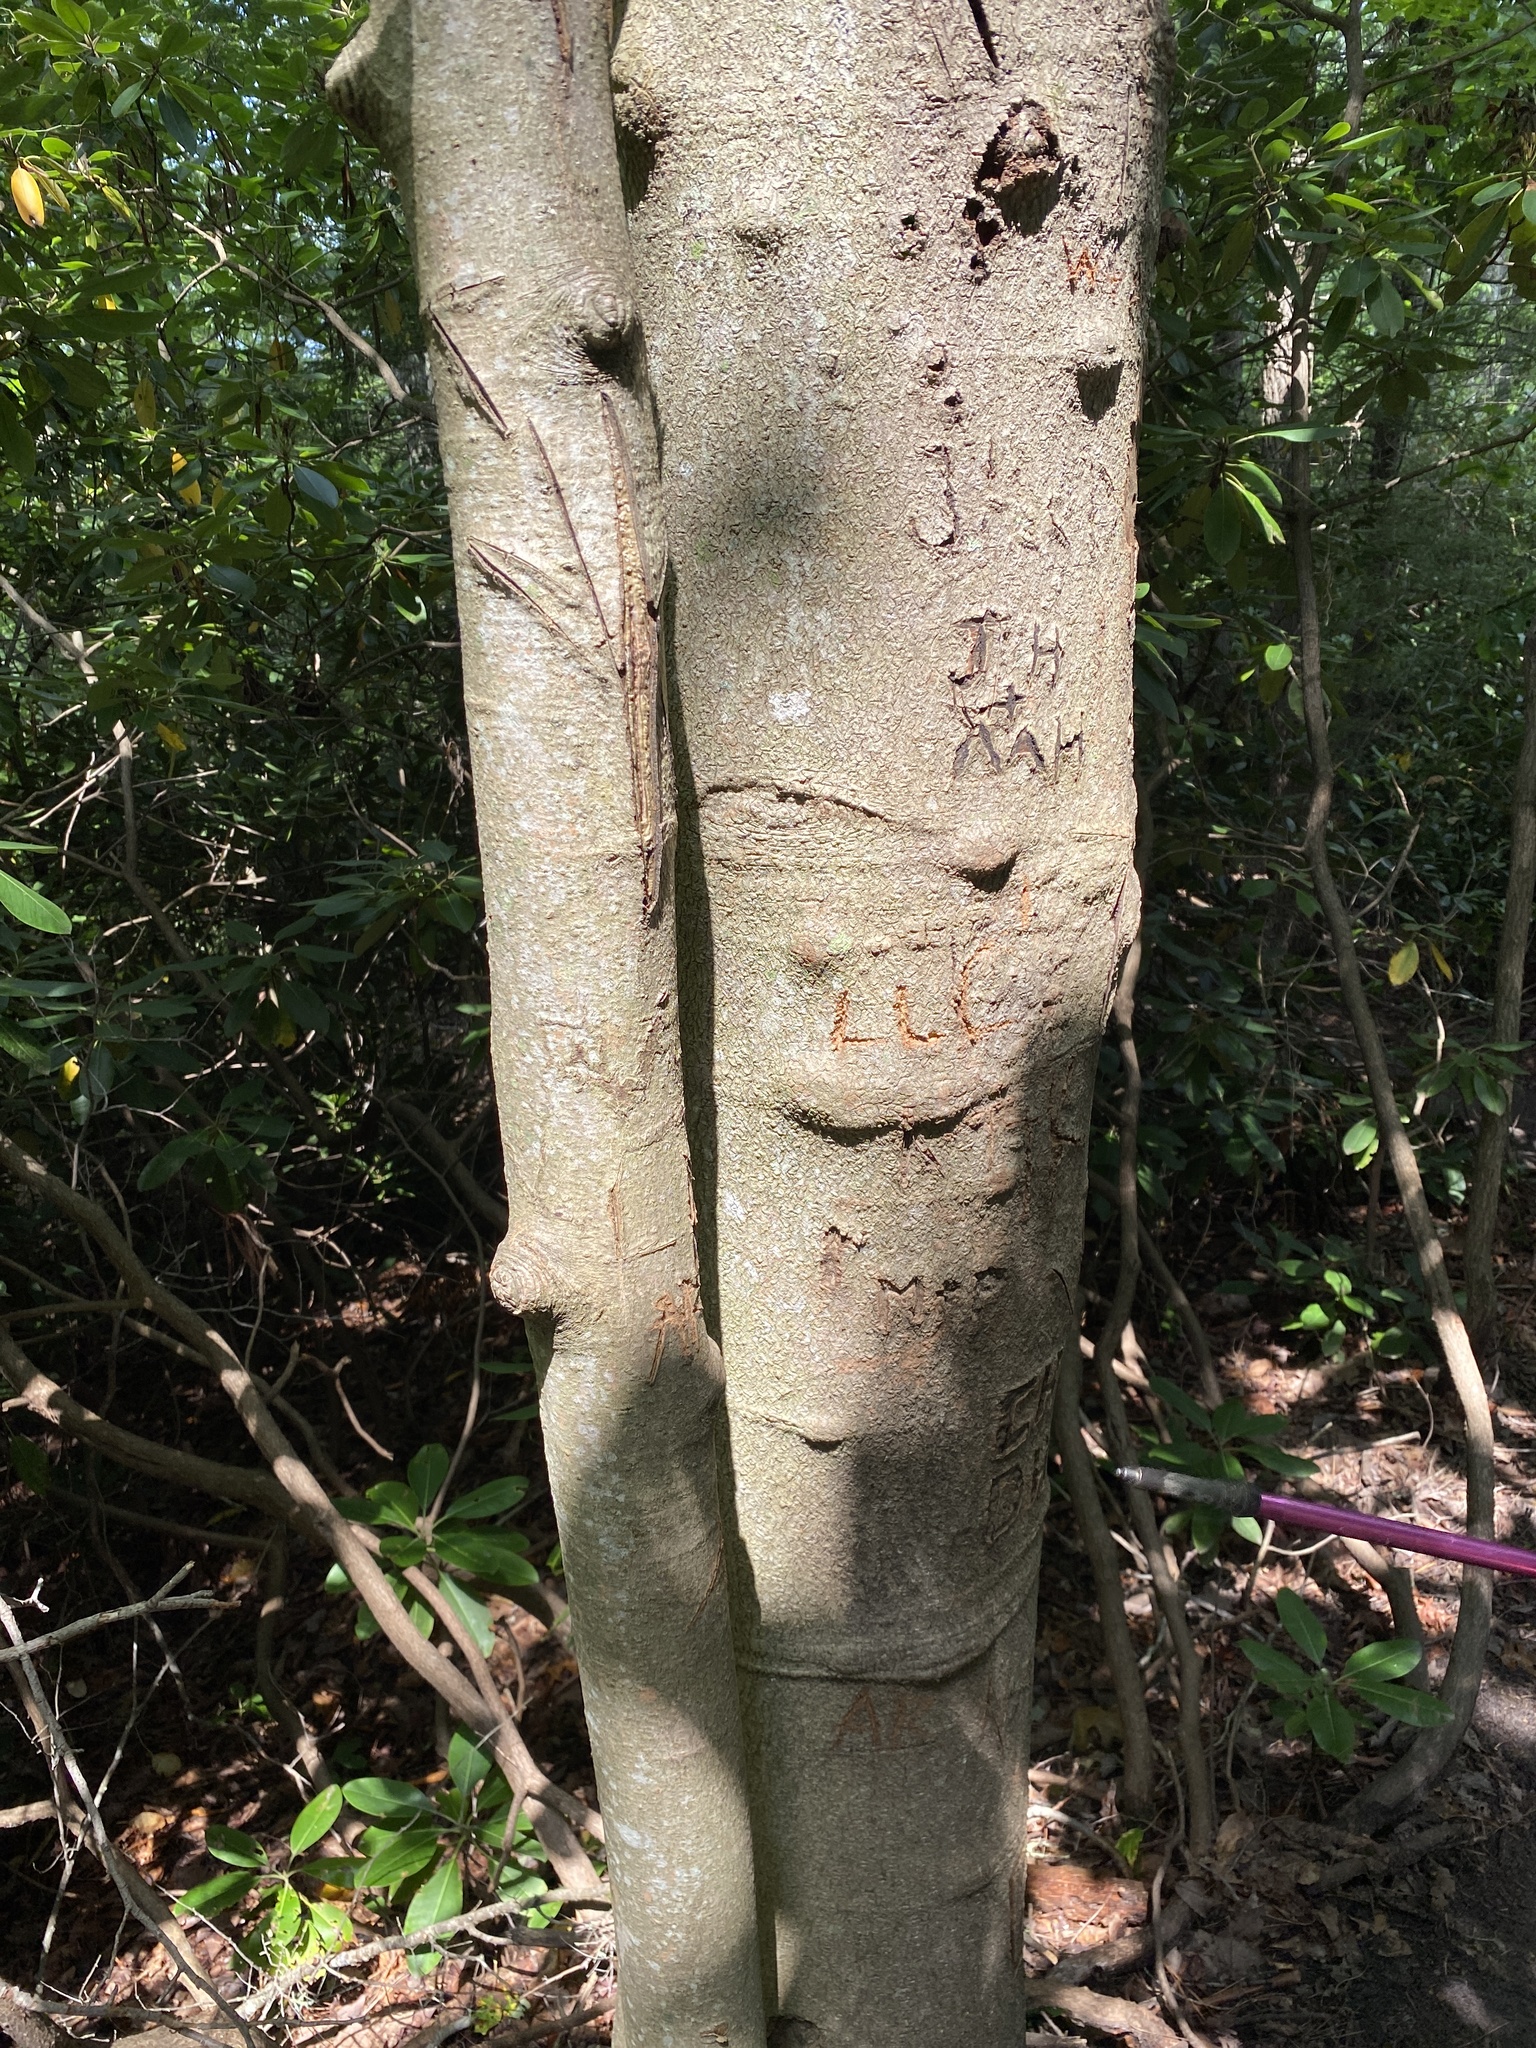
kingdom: Plantae
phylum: Tracheophyta
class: Magnoliopsida
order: Magnoliales
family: Magnoliaceae
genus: Magnolia
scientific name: Magnolia fraseri
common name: Fraser's magnolia
